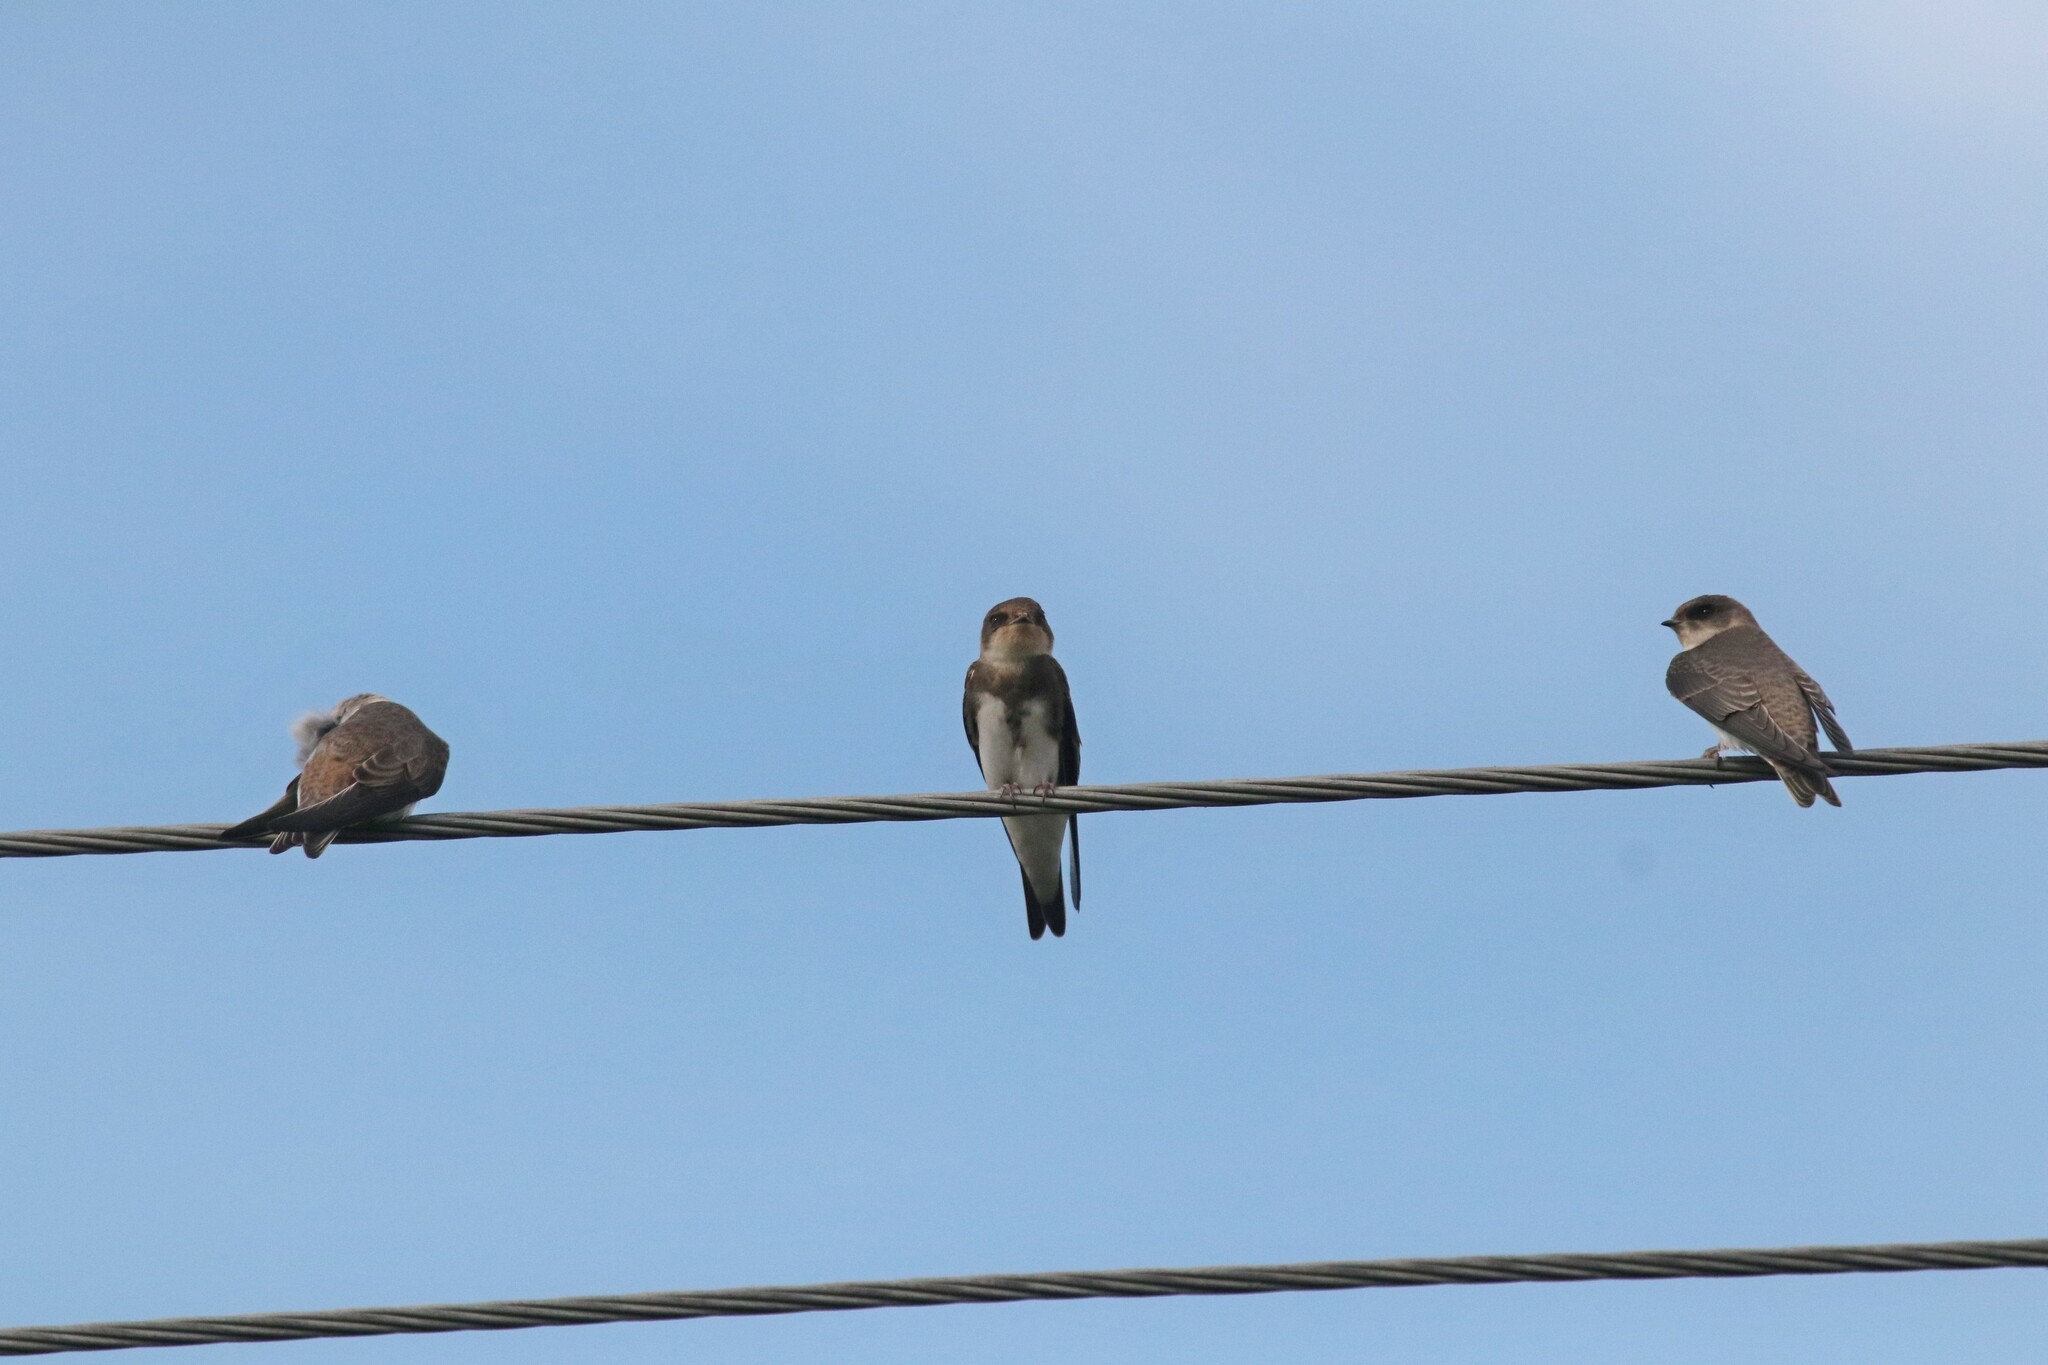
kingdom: Animalia
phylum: Chordata
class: Aves
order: Passeriformes
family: Hirundinidae
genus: Riparia
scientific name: Riparia riparia
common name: Sand martin
